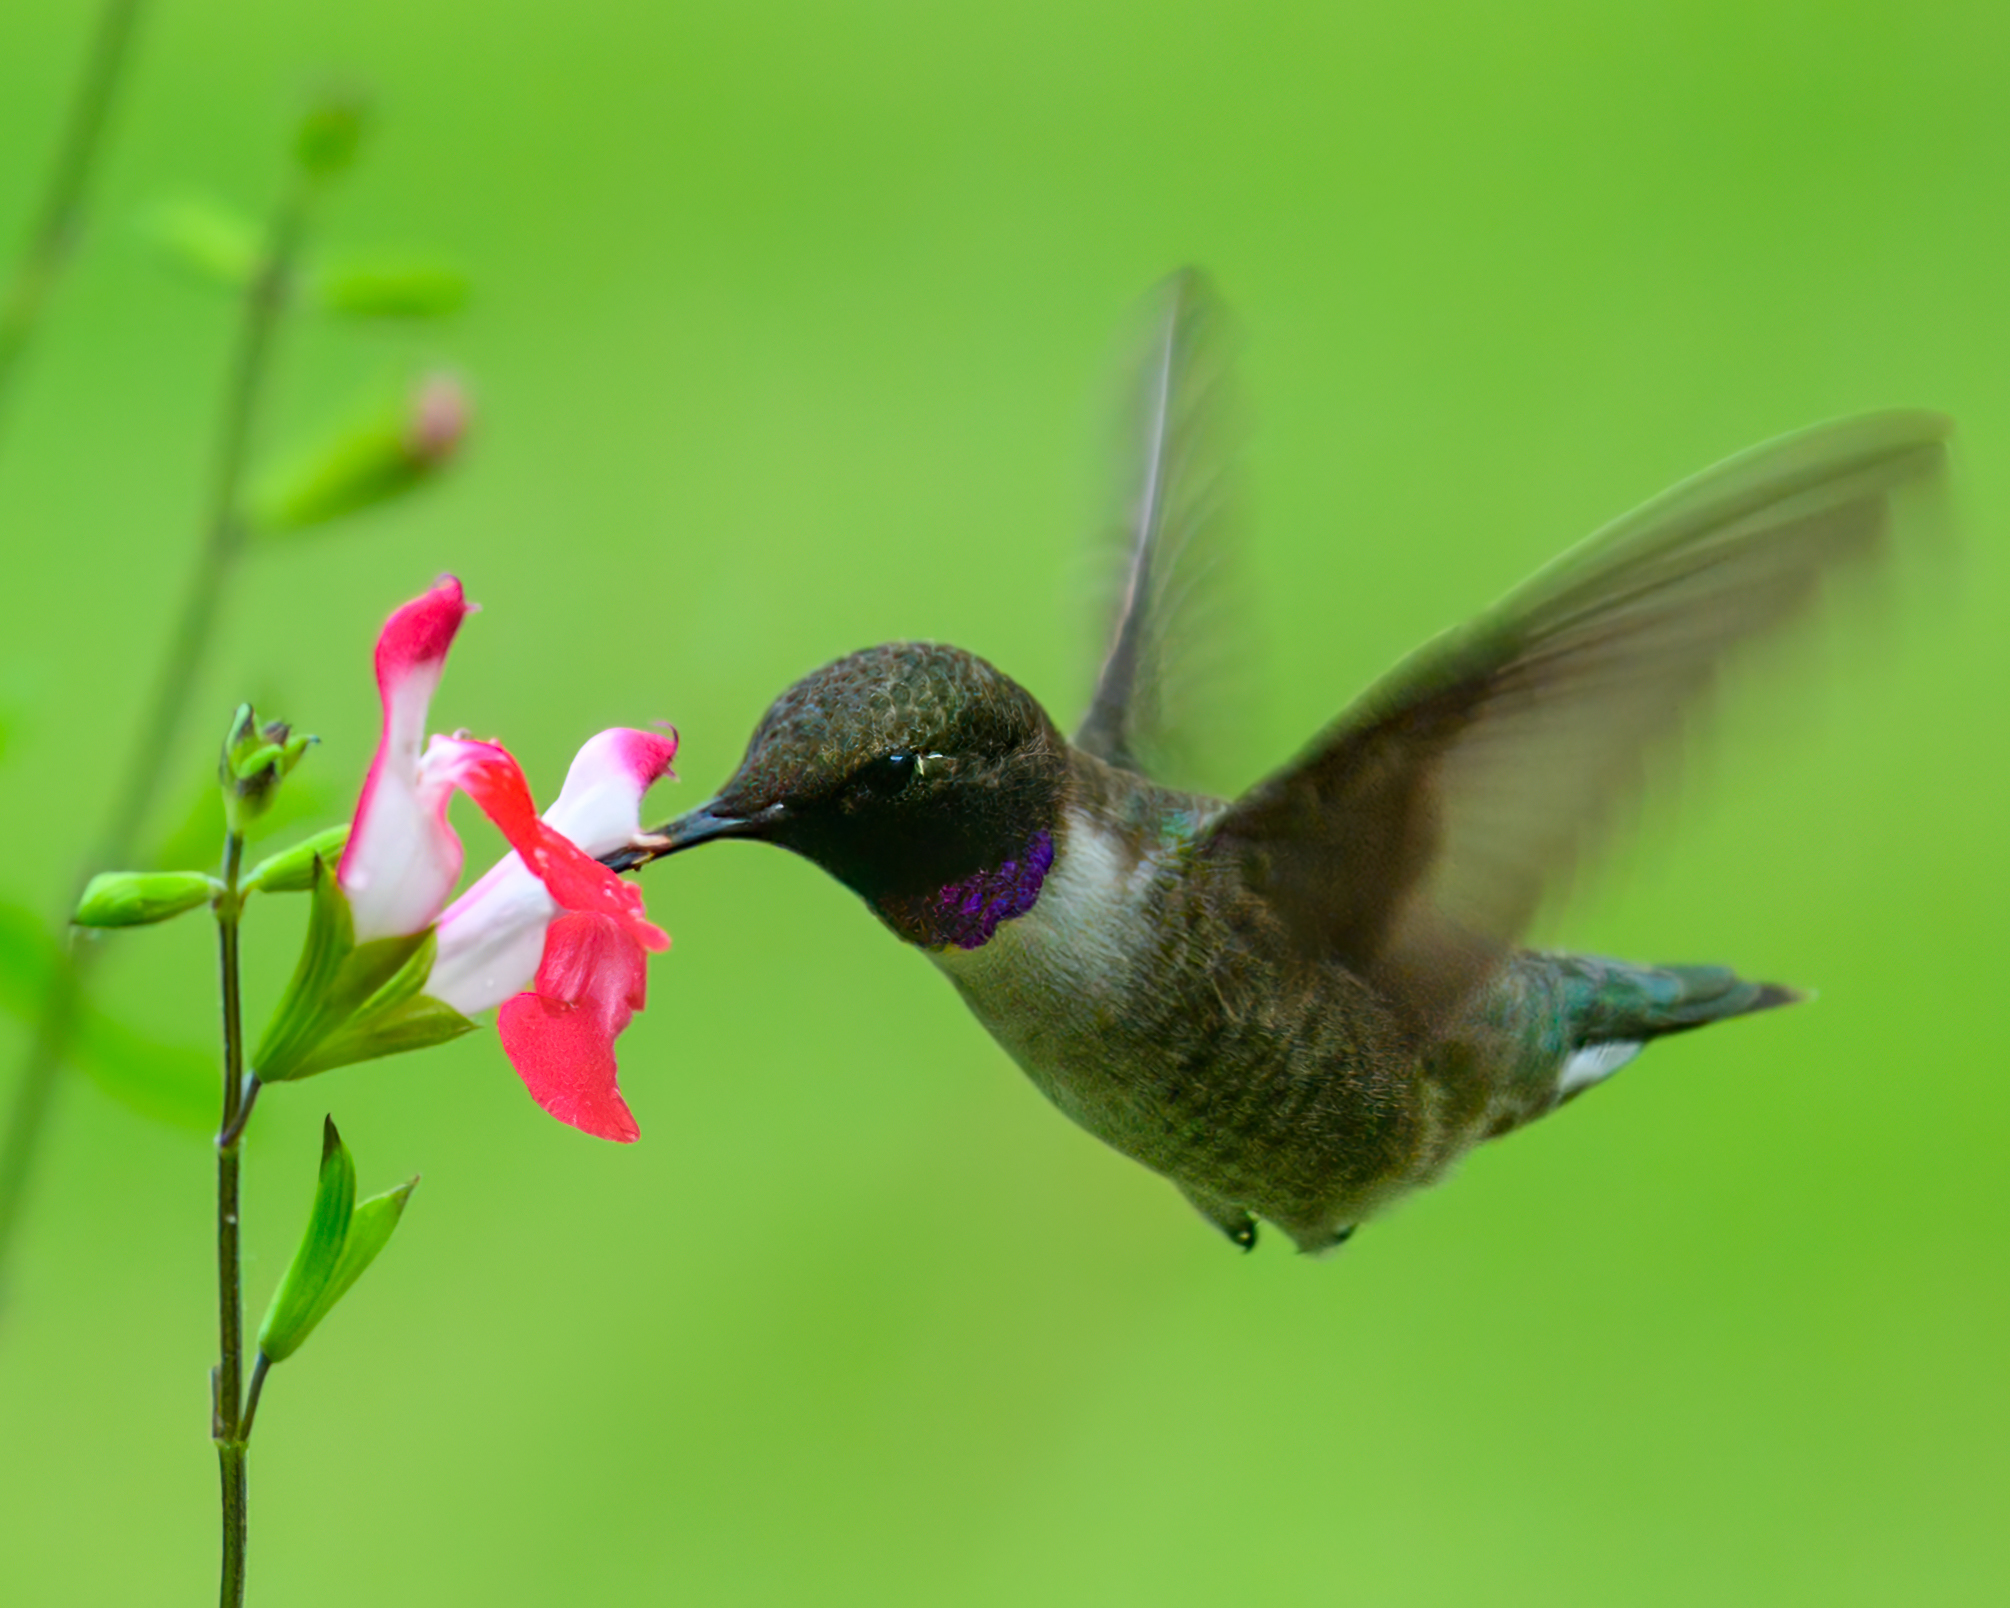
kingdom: Animalia
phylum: Chordata
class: Aves
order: Apodiformes
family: Trochilidae
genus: Archilochus
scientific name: Archilochus colubris
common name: Ruby-throated hummingbird
